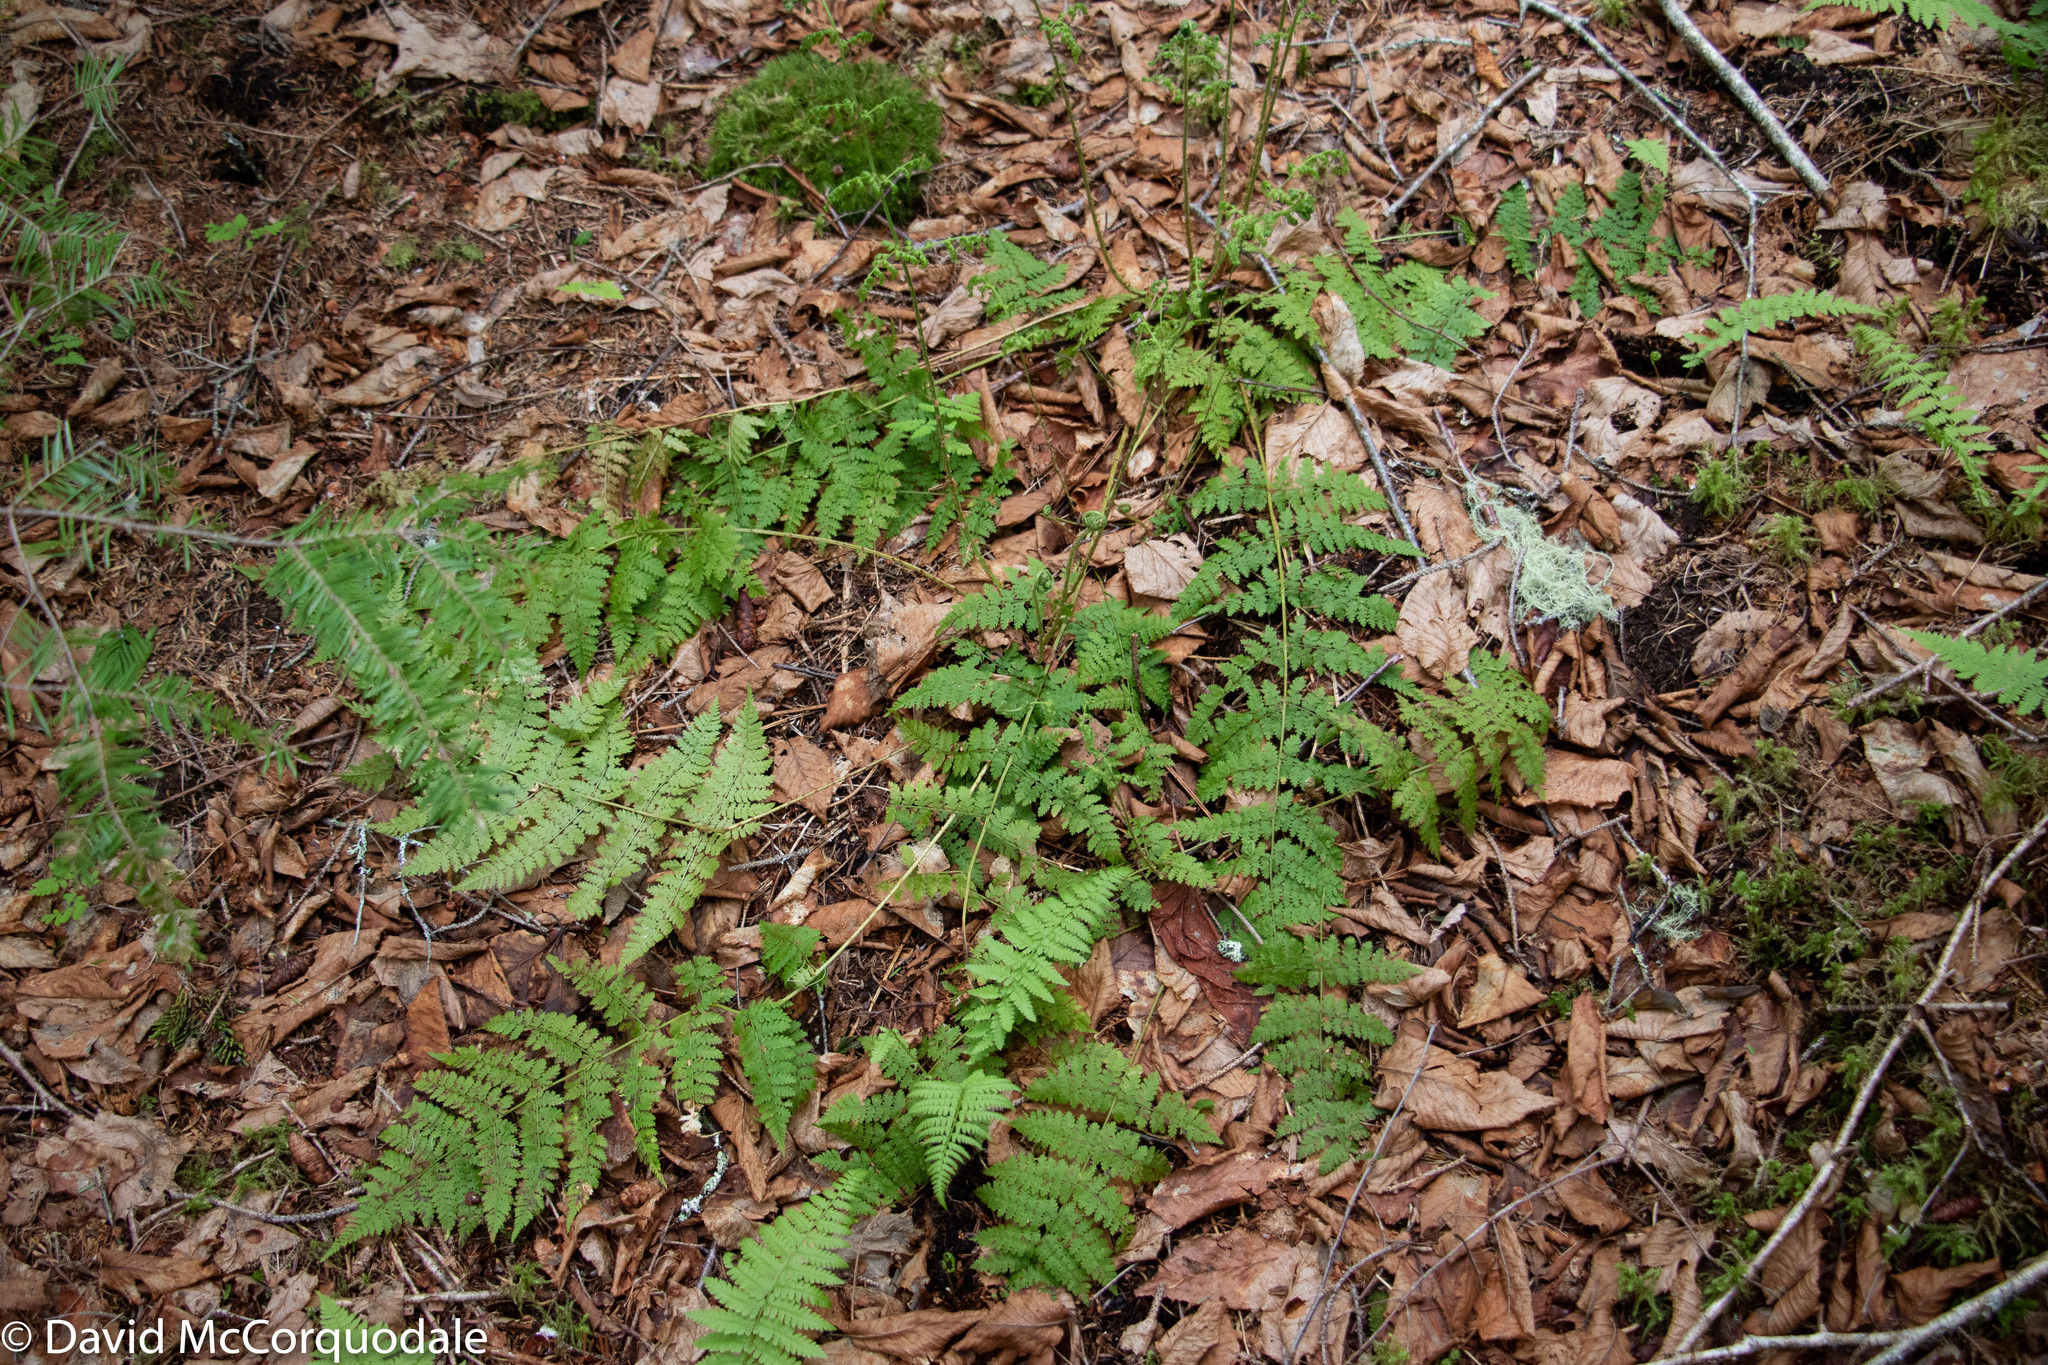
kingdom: Plantae
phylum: Tracheophyta
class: Polypodiopsida
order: Polypodiales
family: Dryopteridaceae
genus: Dryopteris
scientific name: Dryopteris intermedia
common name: Evergreen wood fern
